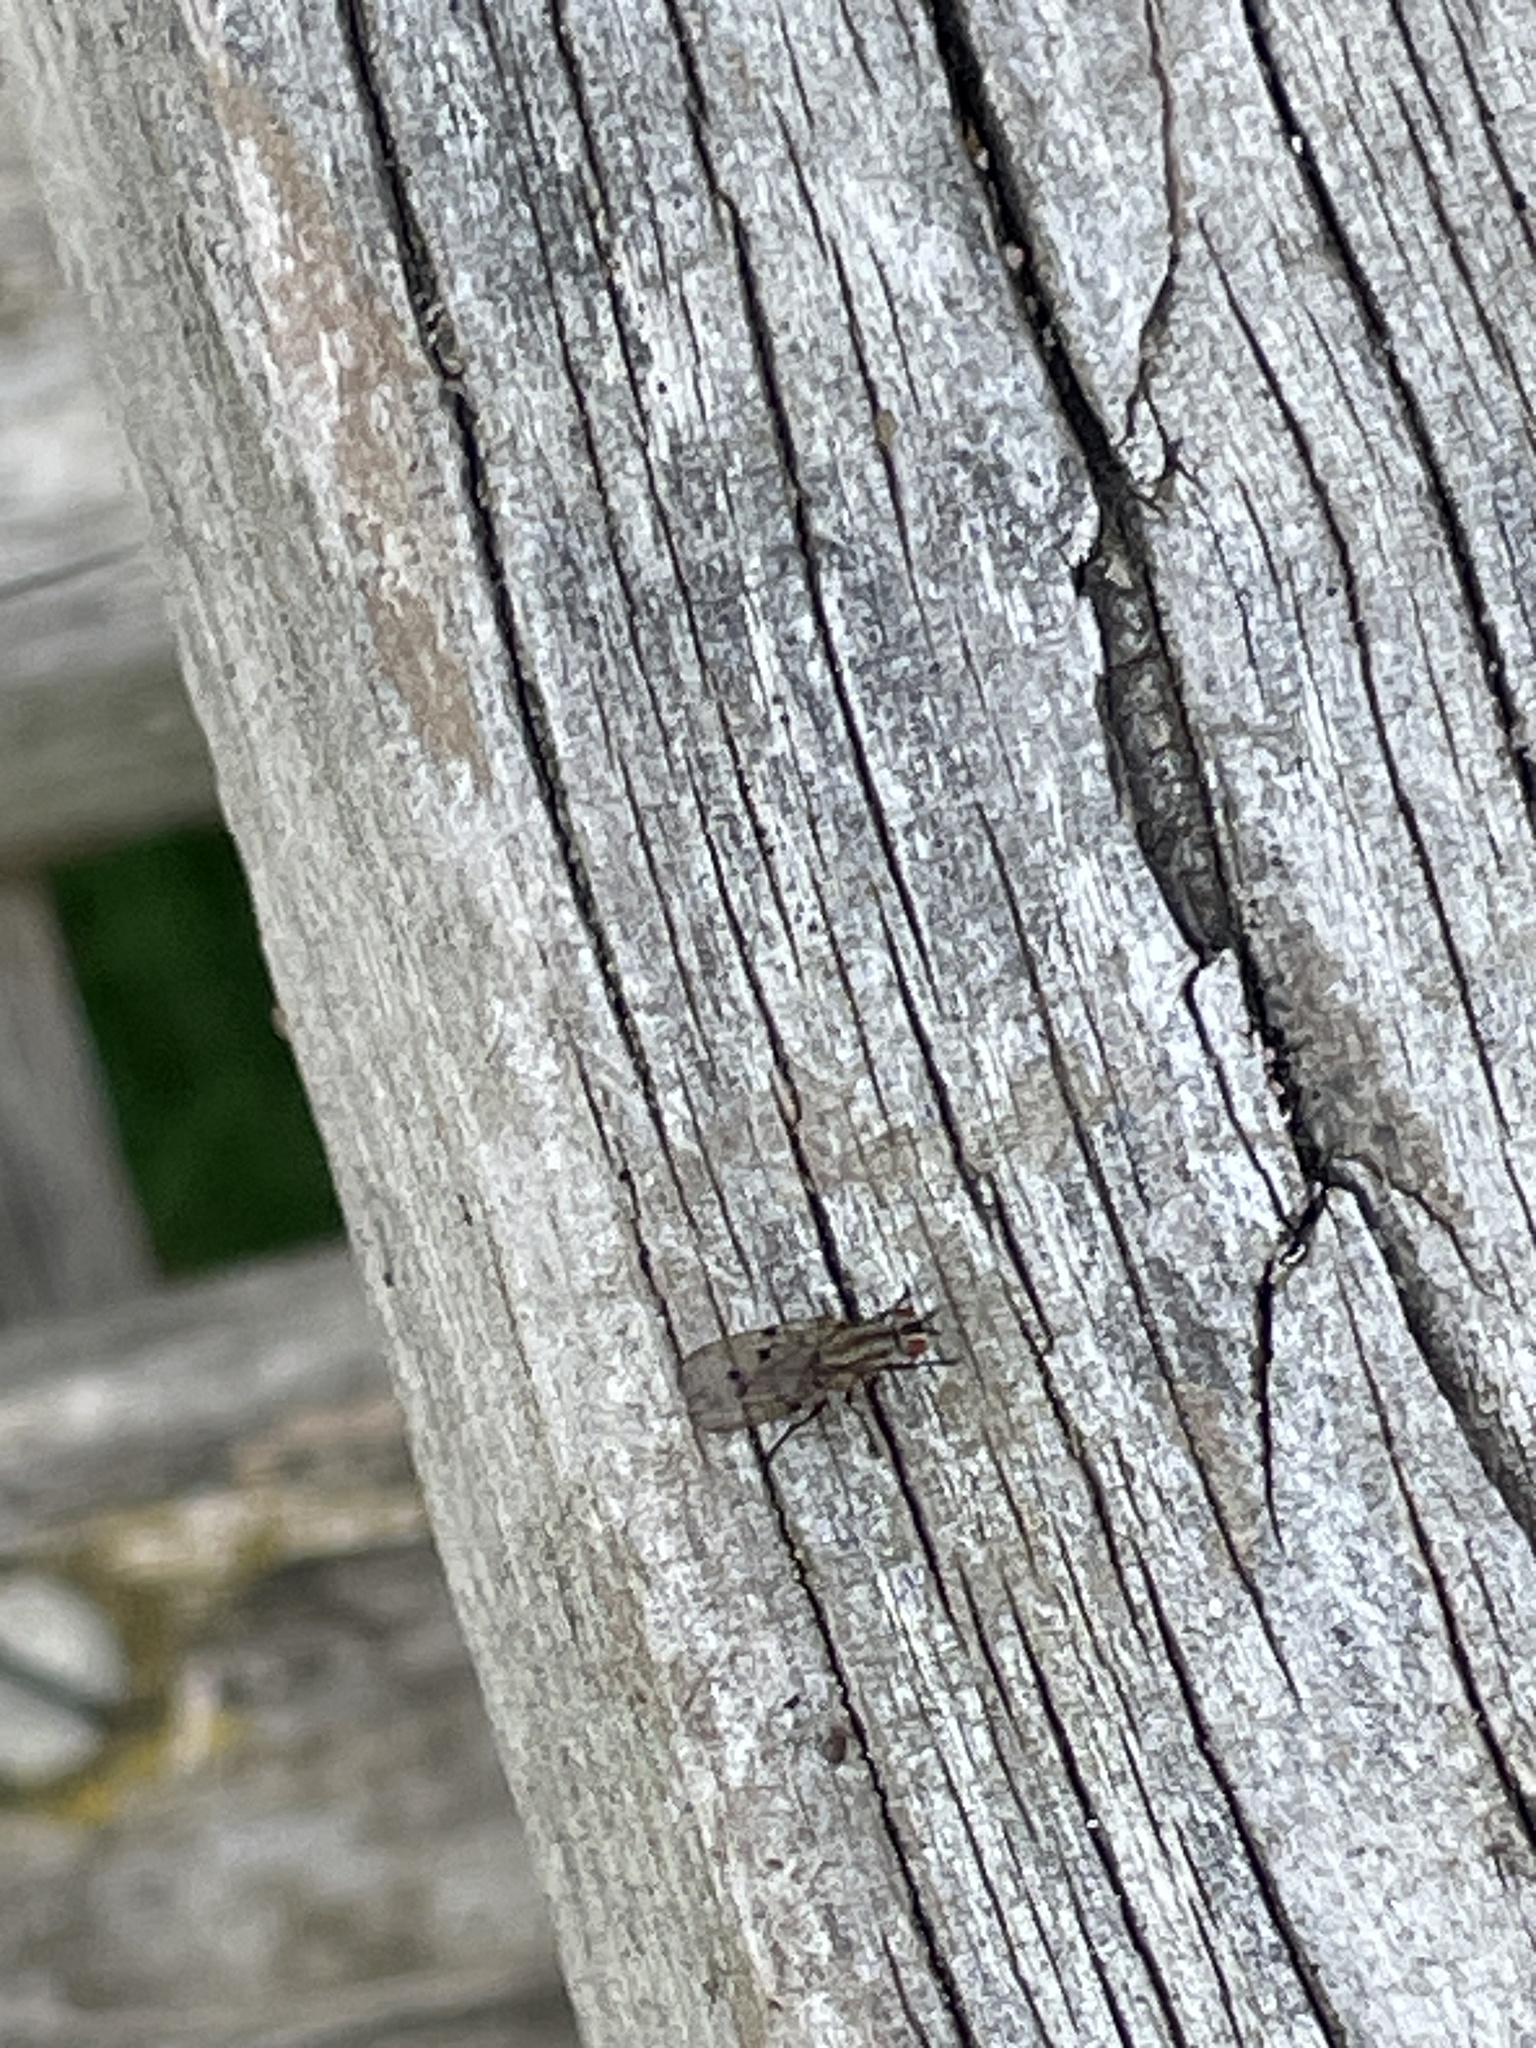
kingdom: Animalia
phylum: Arthropoda
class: Insecta
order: Diptera
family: Anthomyiidae
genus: Anthomyia
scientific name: Anthomyia punctipennis
